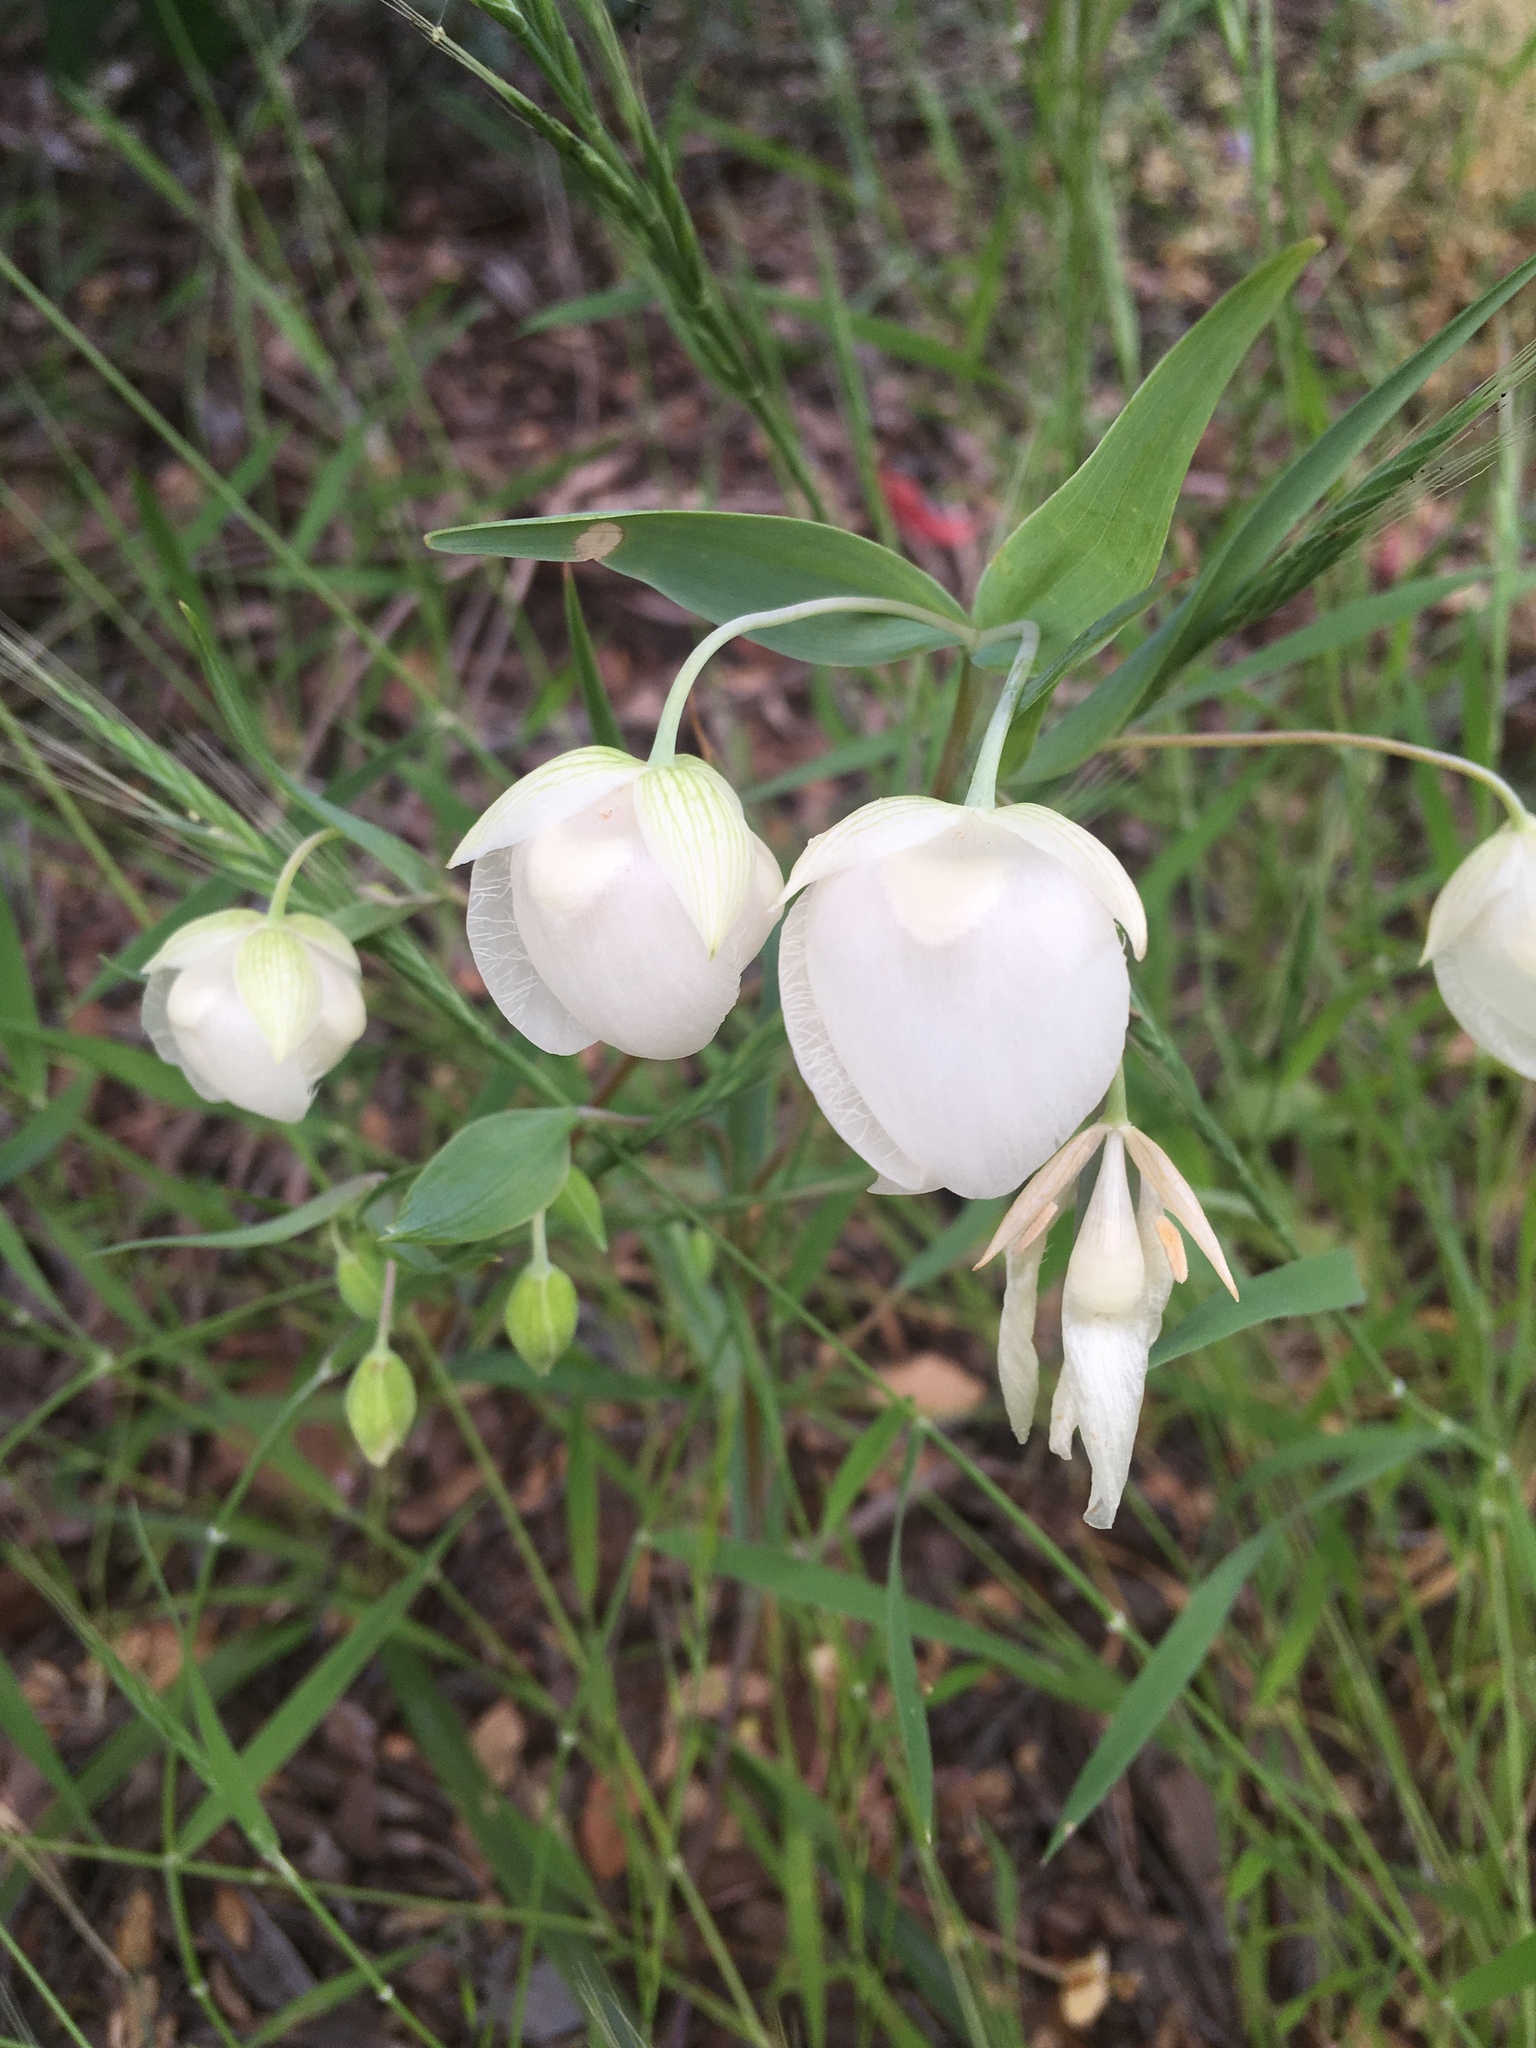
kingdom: Plantae
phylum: Tracheophyta
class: Liliopsida
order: Liliales
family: Liliaceae
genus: Calochortus
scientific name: Calochortus albus
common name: Fairy-lantern
